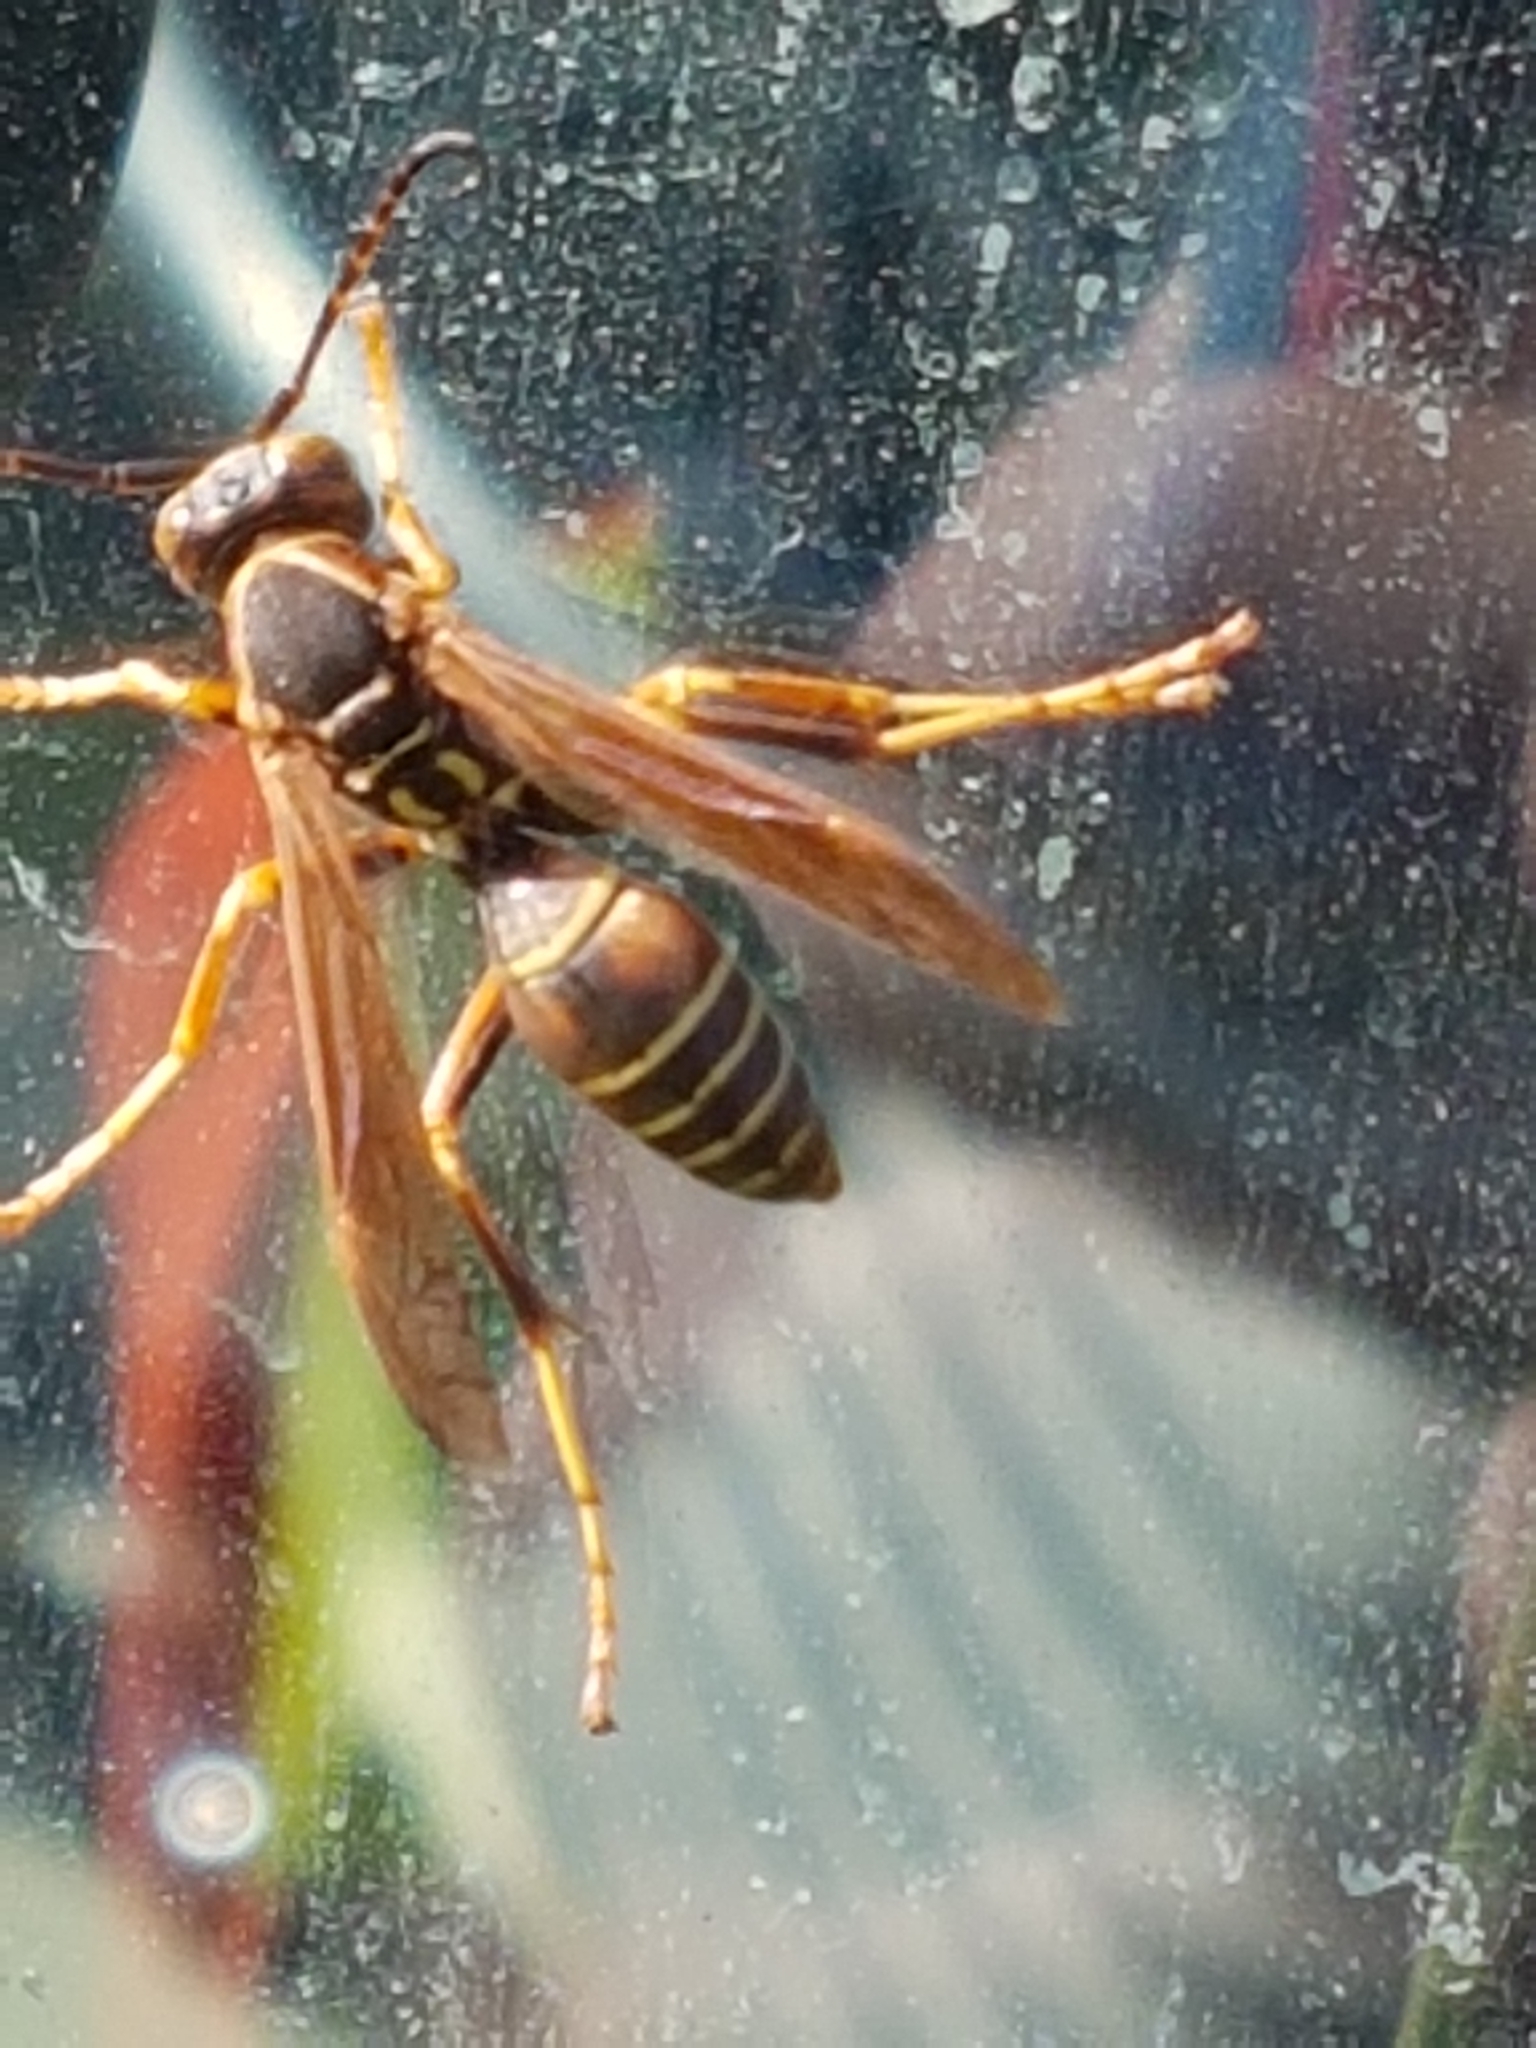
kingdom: Animalia
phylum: Arthropoda
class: Insecta
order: Hymenoptera
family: Eumenidae
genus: Polistes
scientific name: Polistes fuscatus
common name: Dark paper wasp
